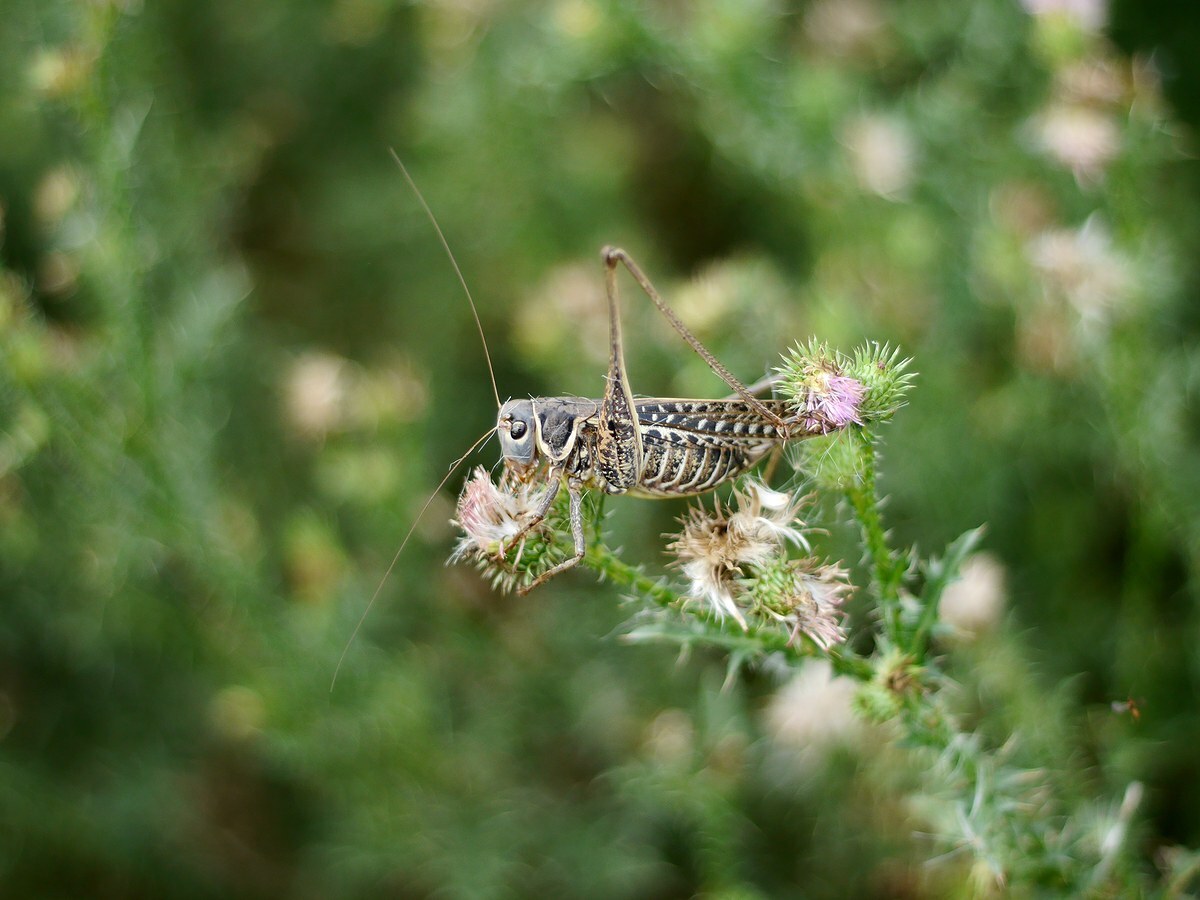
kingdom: Animalia
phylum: Arthropoda
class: Insecta
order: Orthoptera
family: Tettigoniidae
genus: Decticus
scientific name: Decticus albifrons
